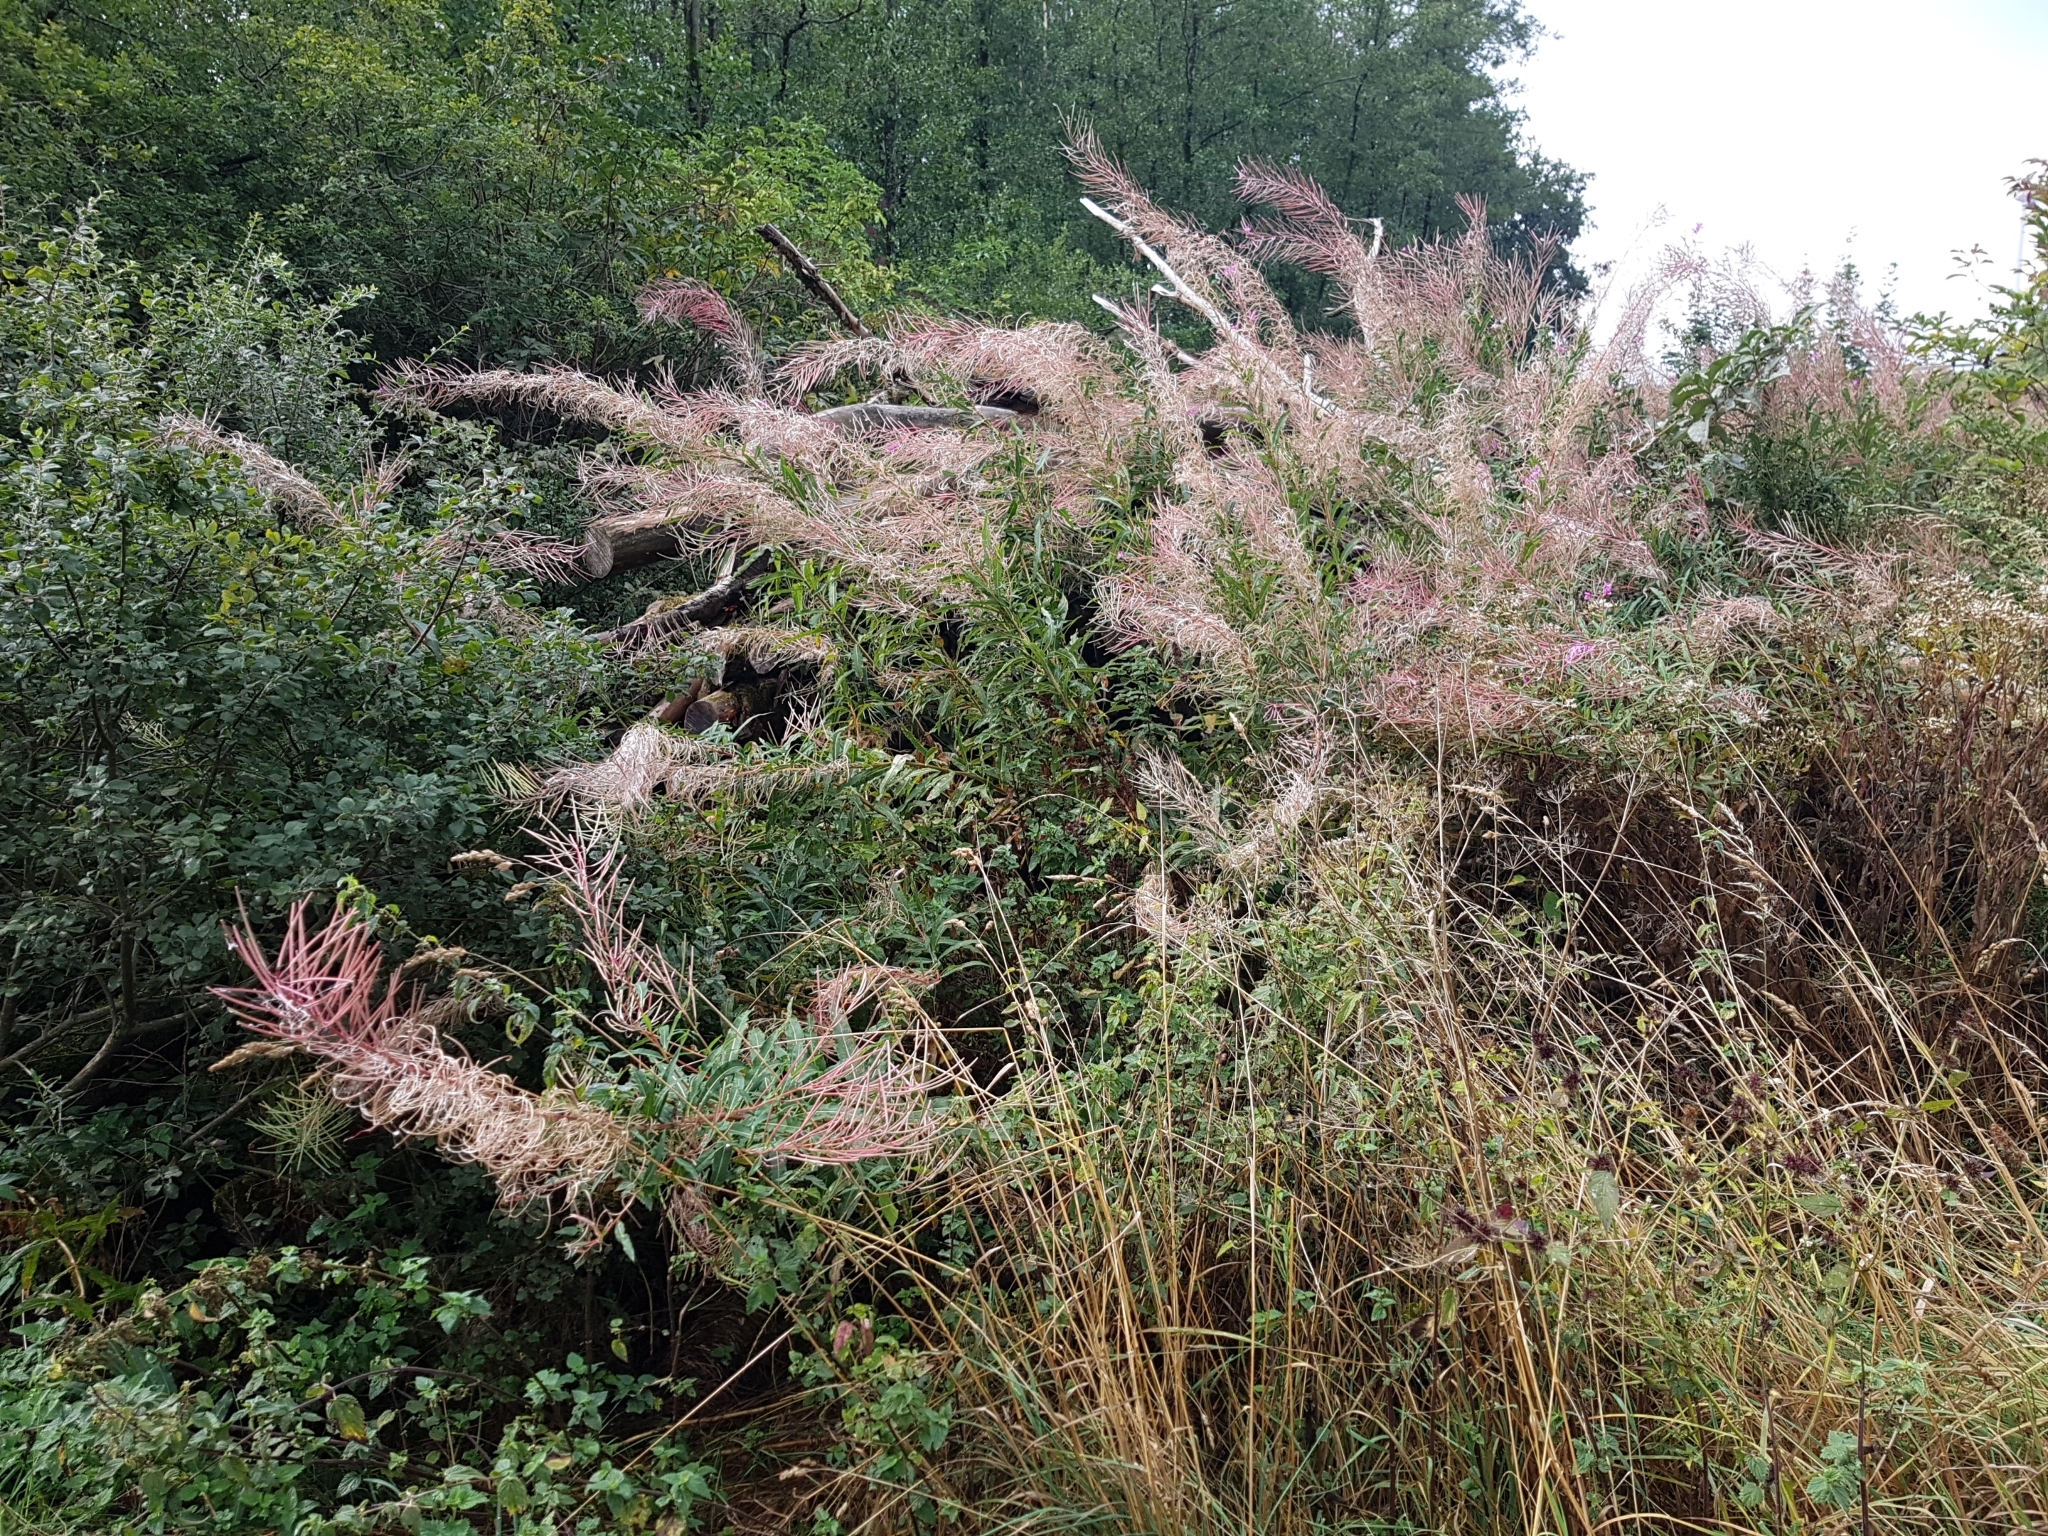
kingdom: Plantae
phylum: Tracheophyta
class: Magnoliopsida
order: Myrtales
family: Onagraceae
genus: Chamaenerion
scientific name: Chamaenerion angustifolium
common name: Fireweed
